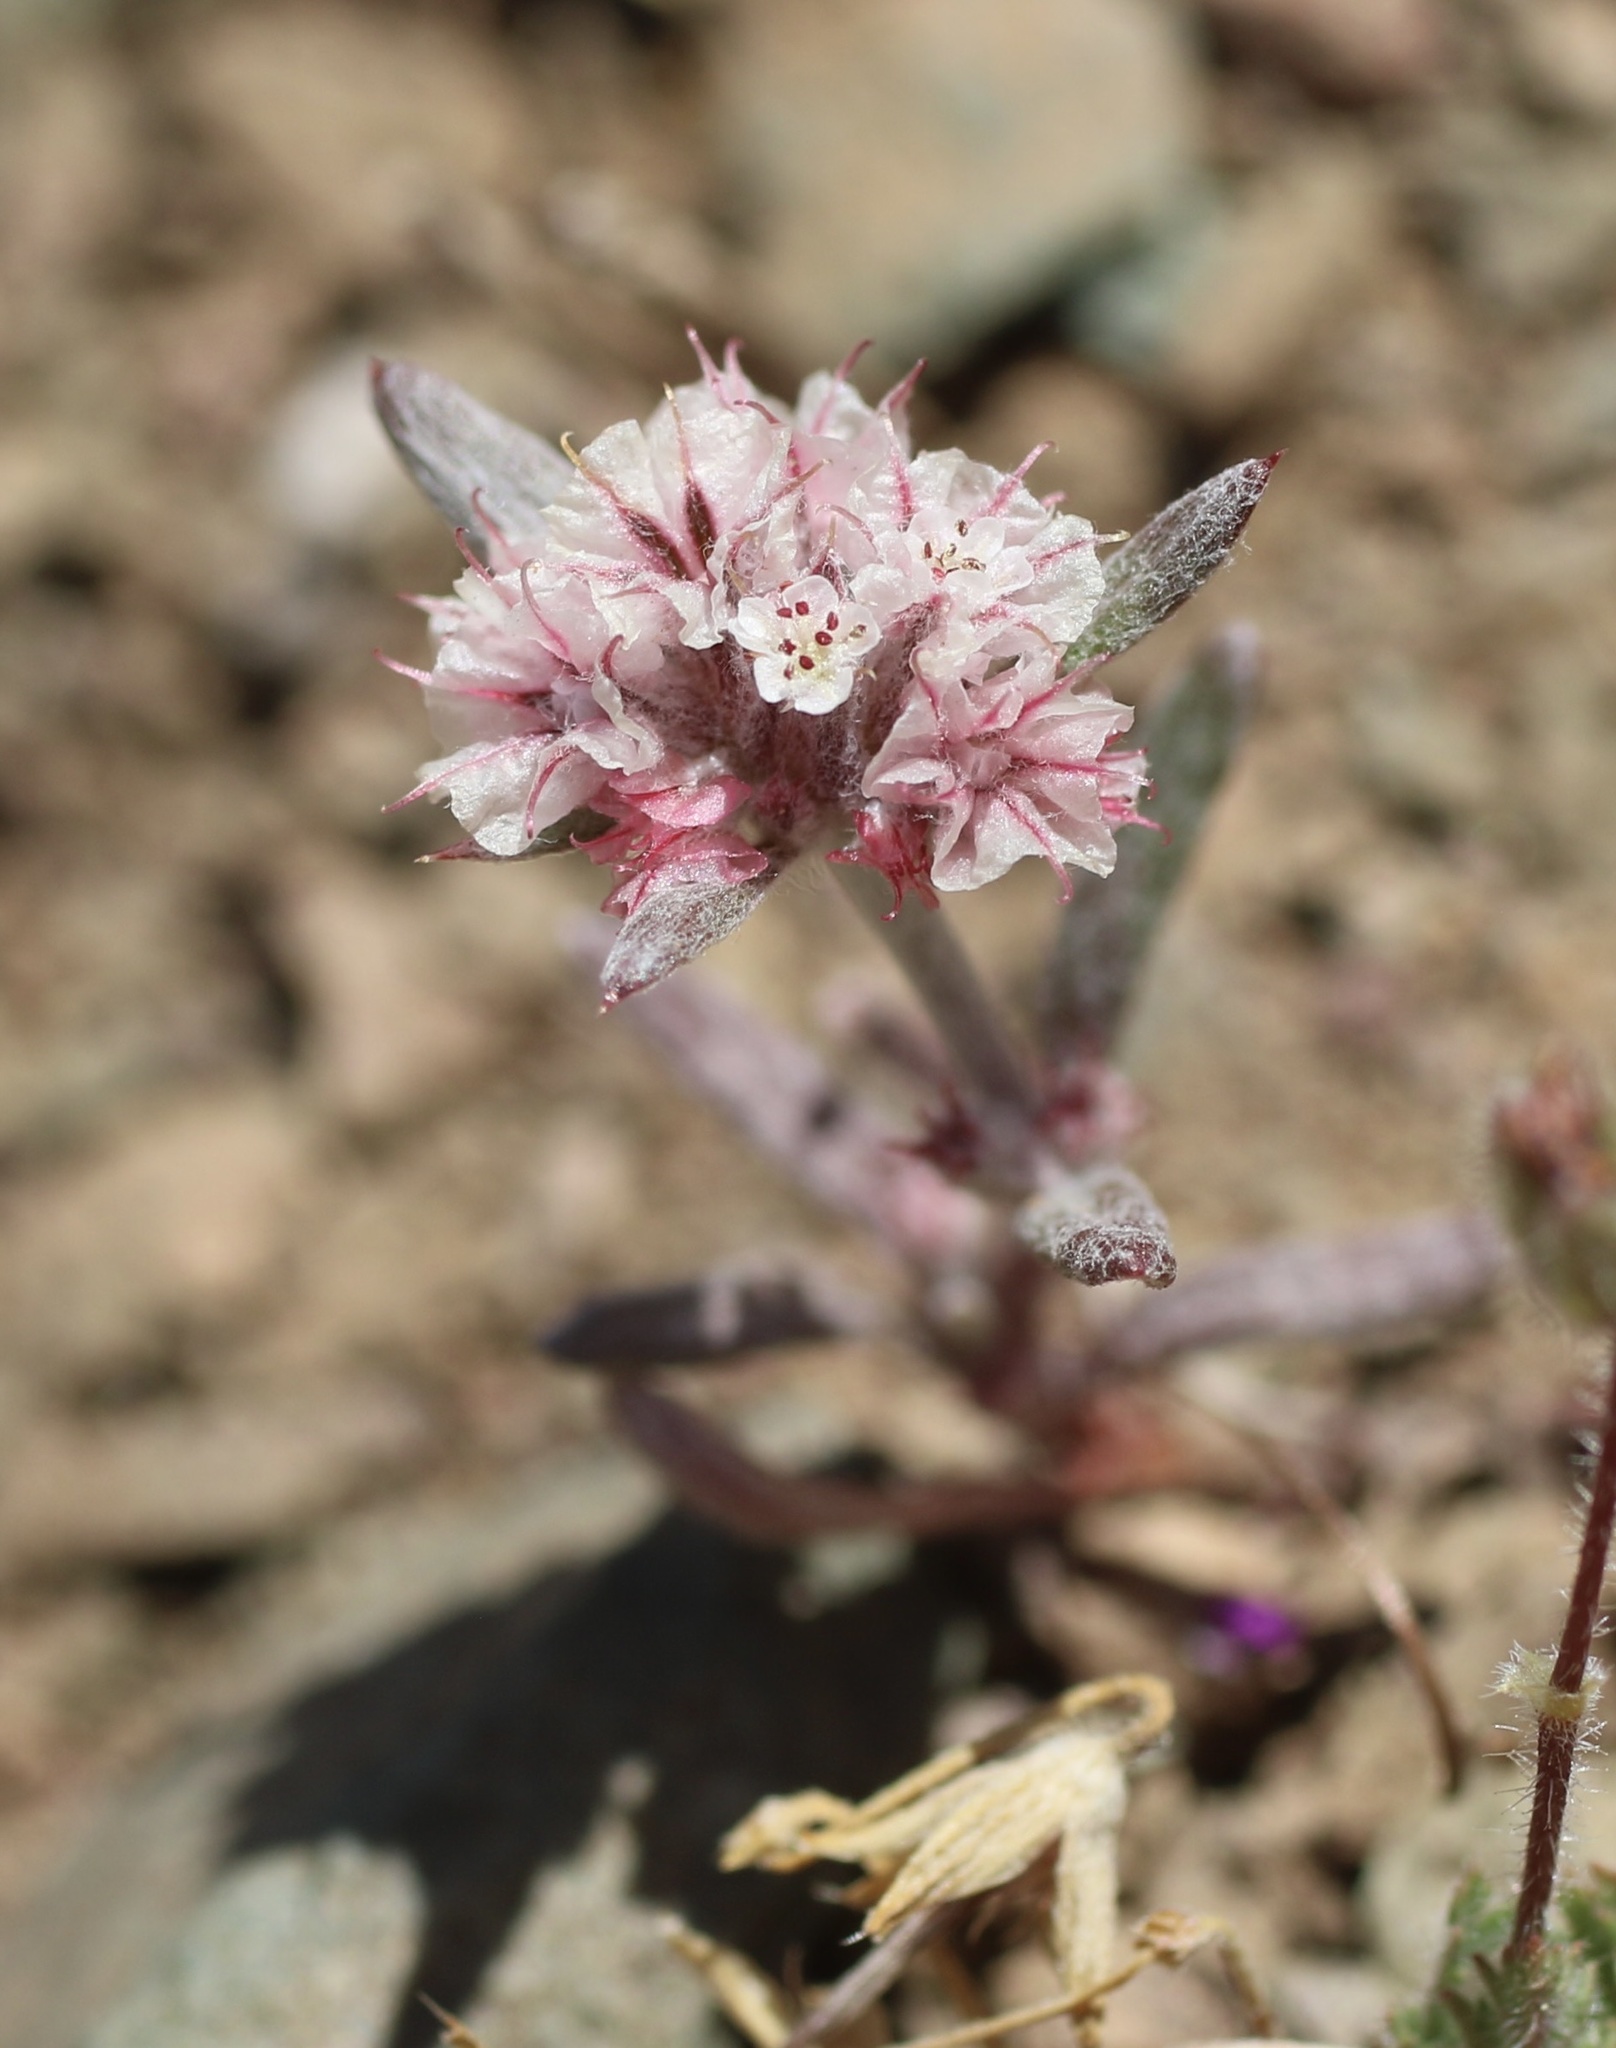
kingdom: Plantae
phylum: Tracheophyta
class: Magnoliopsida
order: Caryophyllales
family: Polygonaceae
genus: Chorizanthe
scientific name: Chorizanthe membranacea
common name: Pink spineflower
